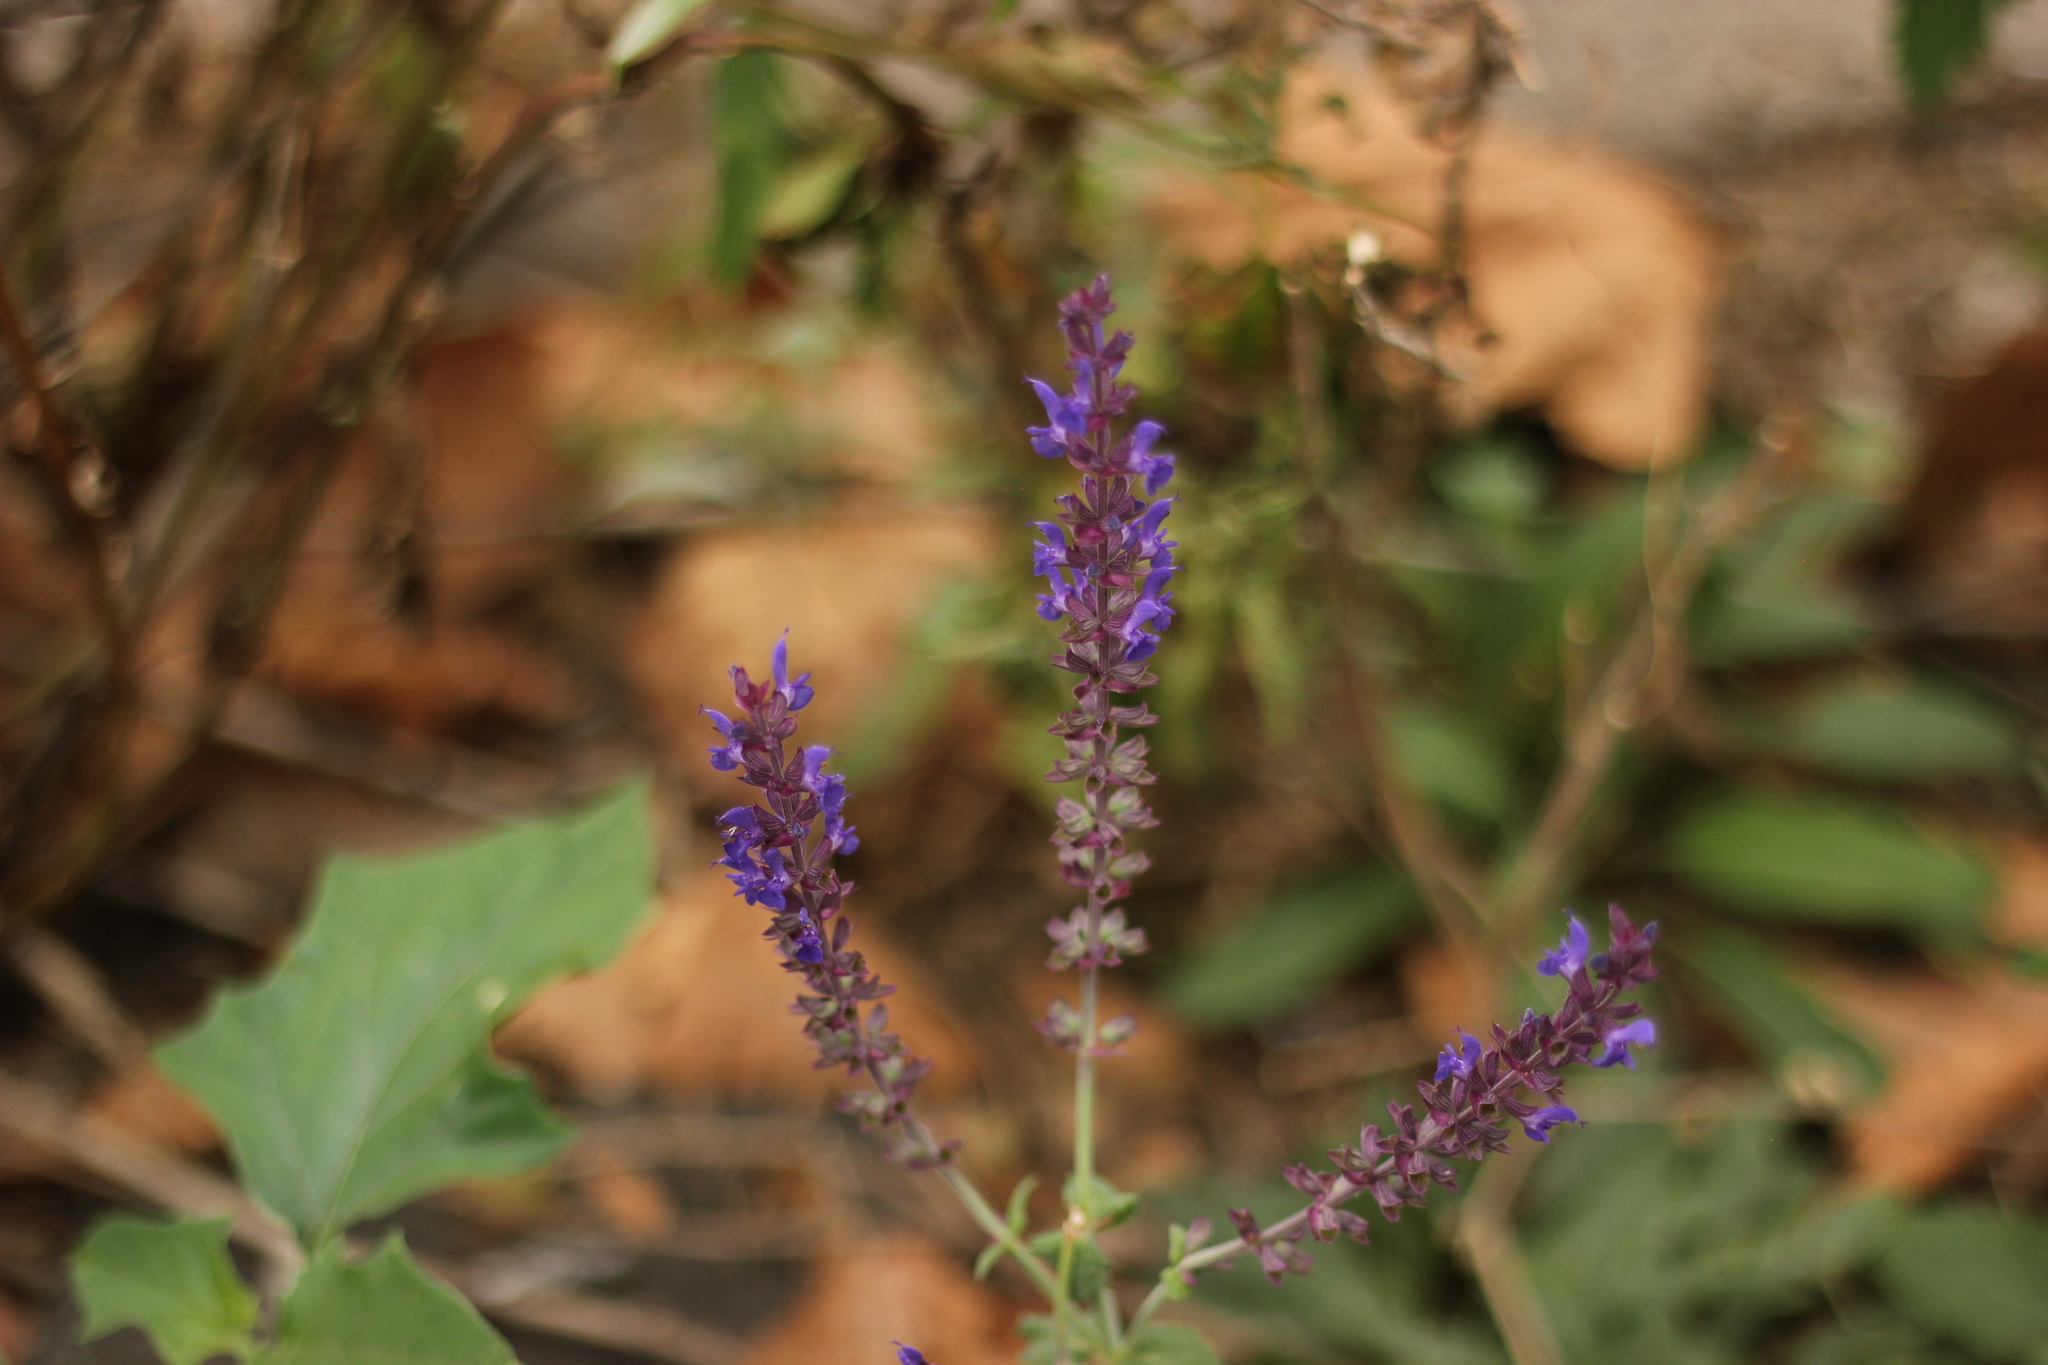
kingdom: Plantae
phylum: Tracheophyta
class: Magnoliopsida
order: Lamiales
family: Lamiaceae
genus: Salvia
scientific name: Salvia nemorosa
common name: Balkan clary
